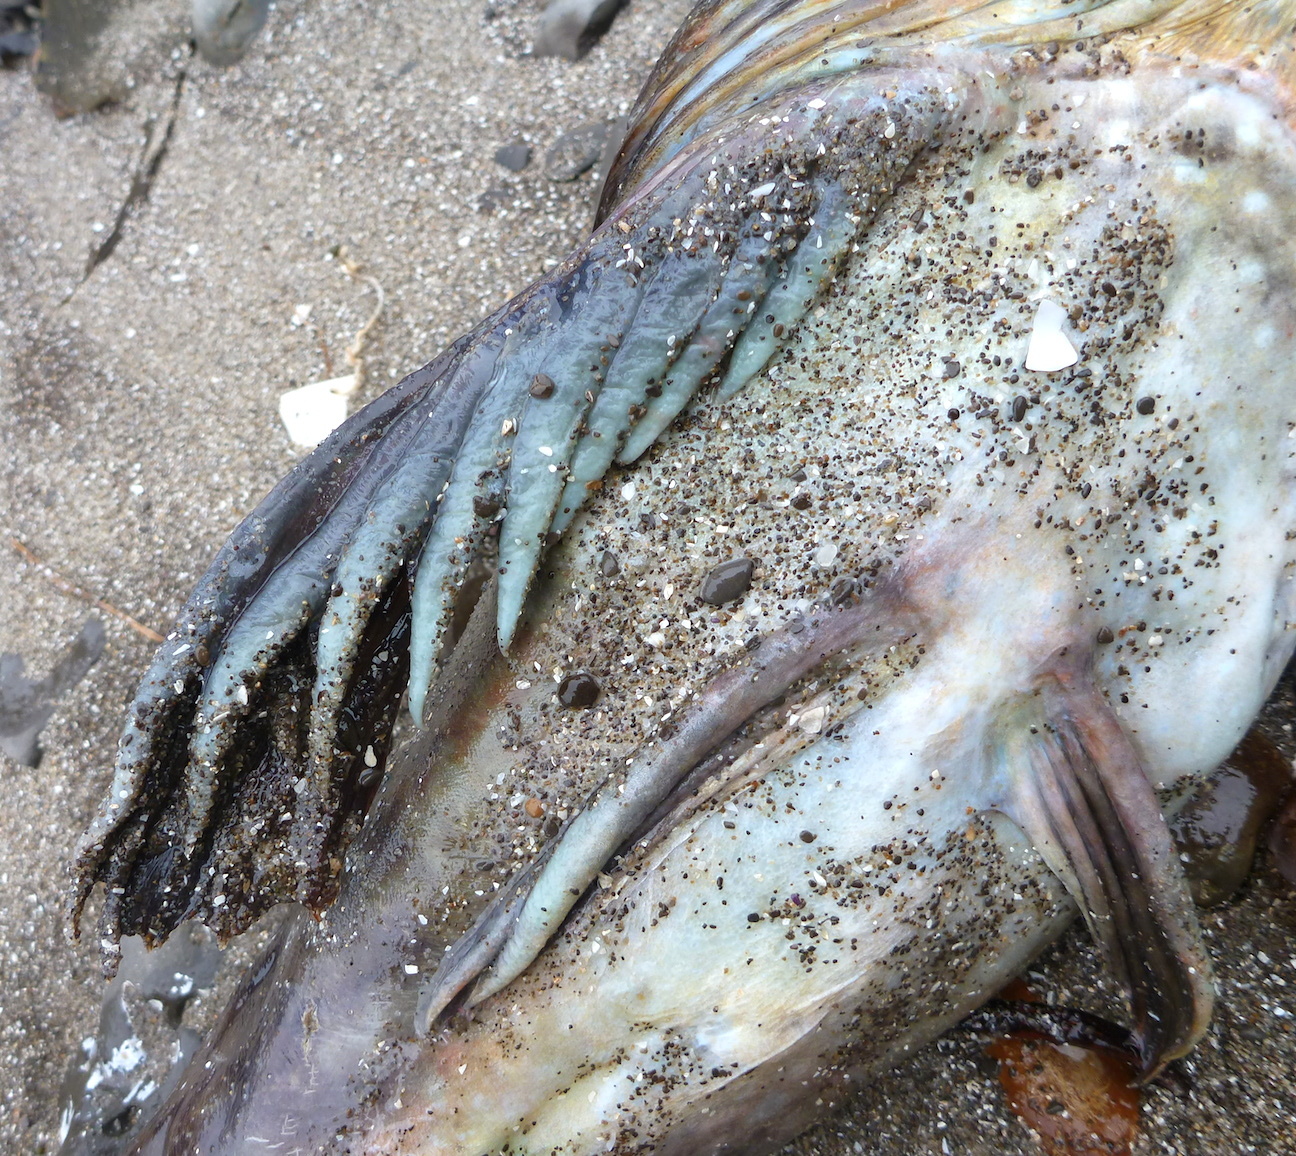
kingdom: Animalia
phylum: Chordata
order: Scorpaeniformes
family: Cottidae
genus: Scorpaenichthys
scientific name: Scorpaenichthys marmoratus
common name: Cabezon
